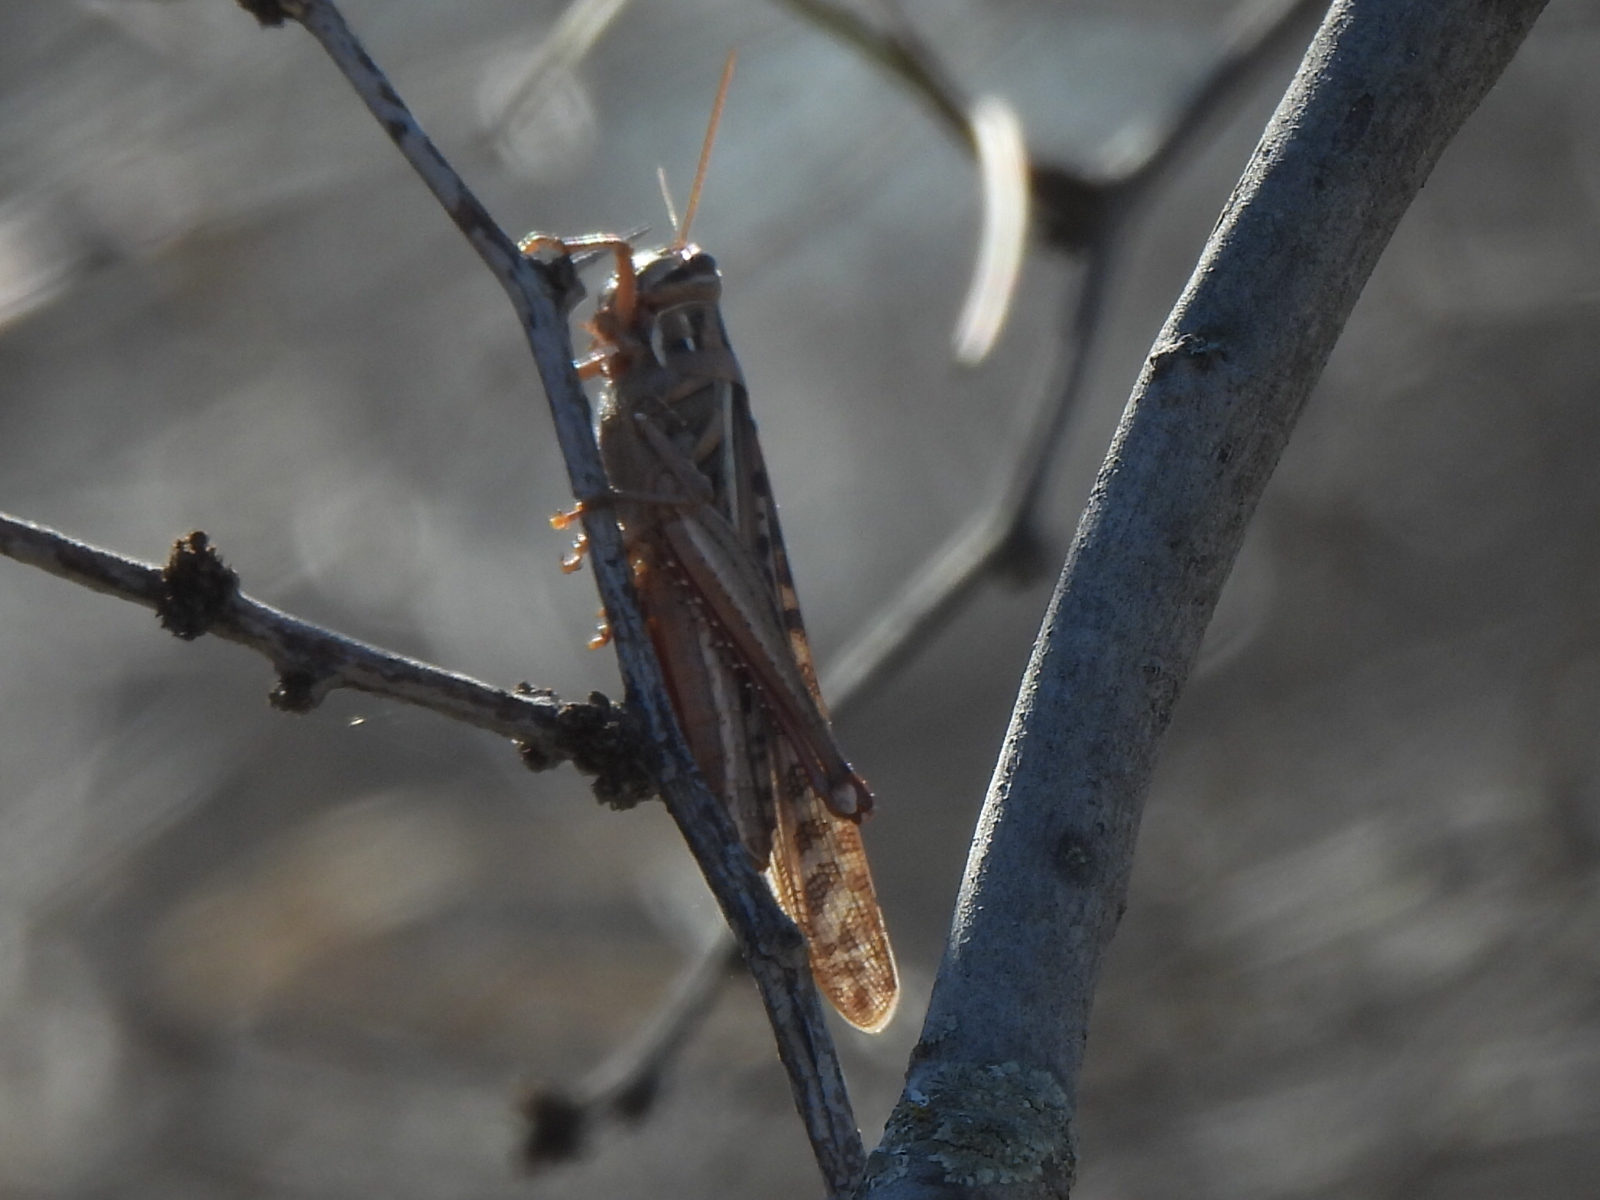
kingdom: Animalia
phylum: Arthropoda
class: Insecta
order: Orthoptera
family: Acrididae
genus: Schistocerca
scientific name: Schistocerca americana
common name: American bird locust
